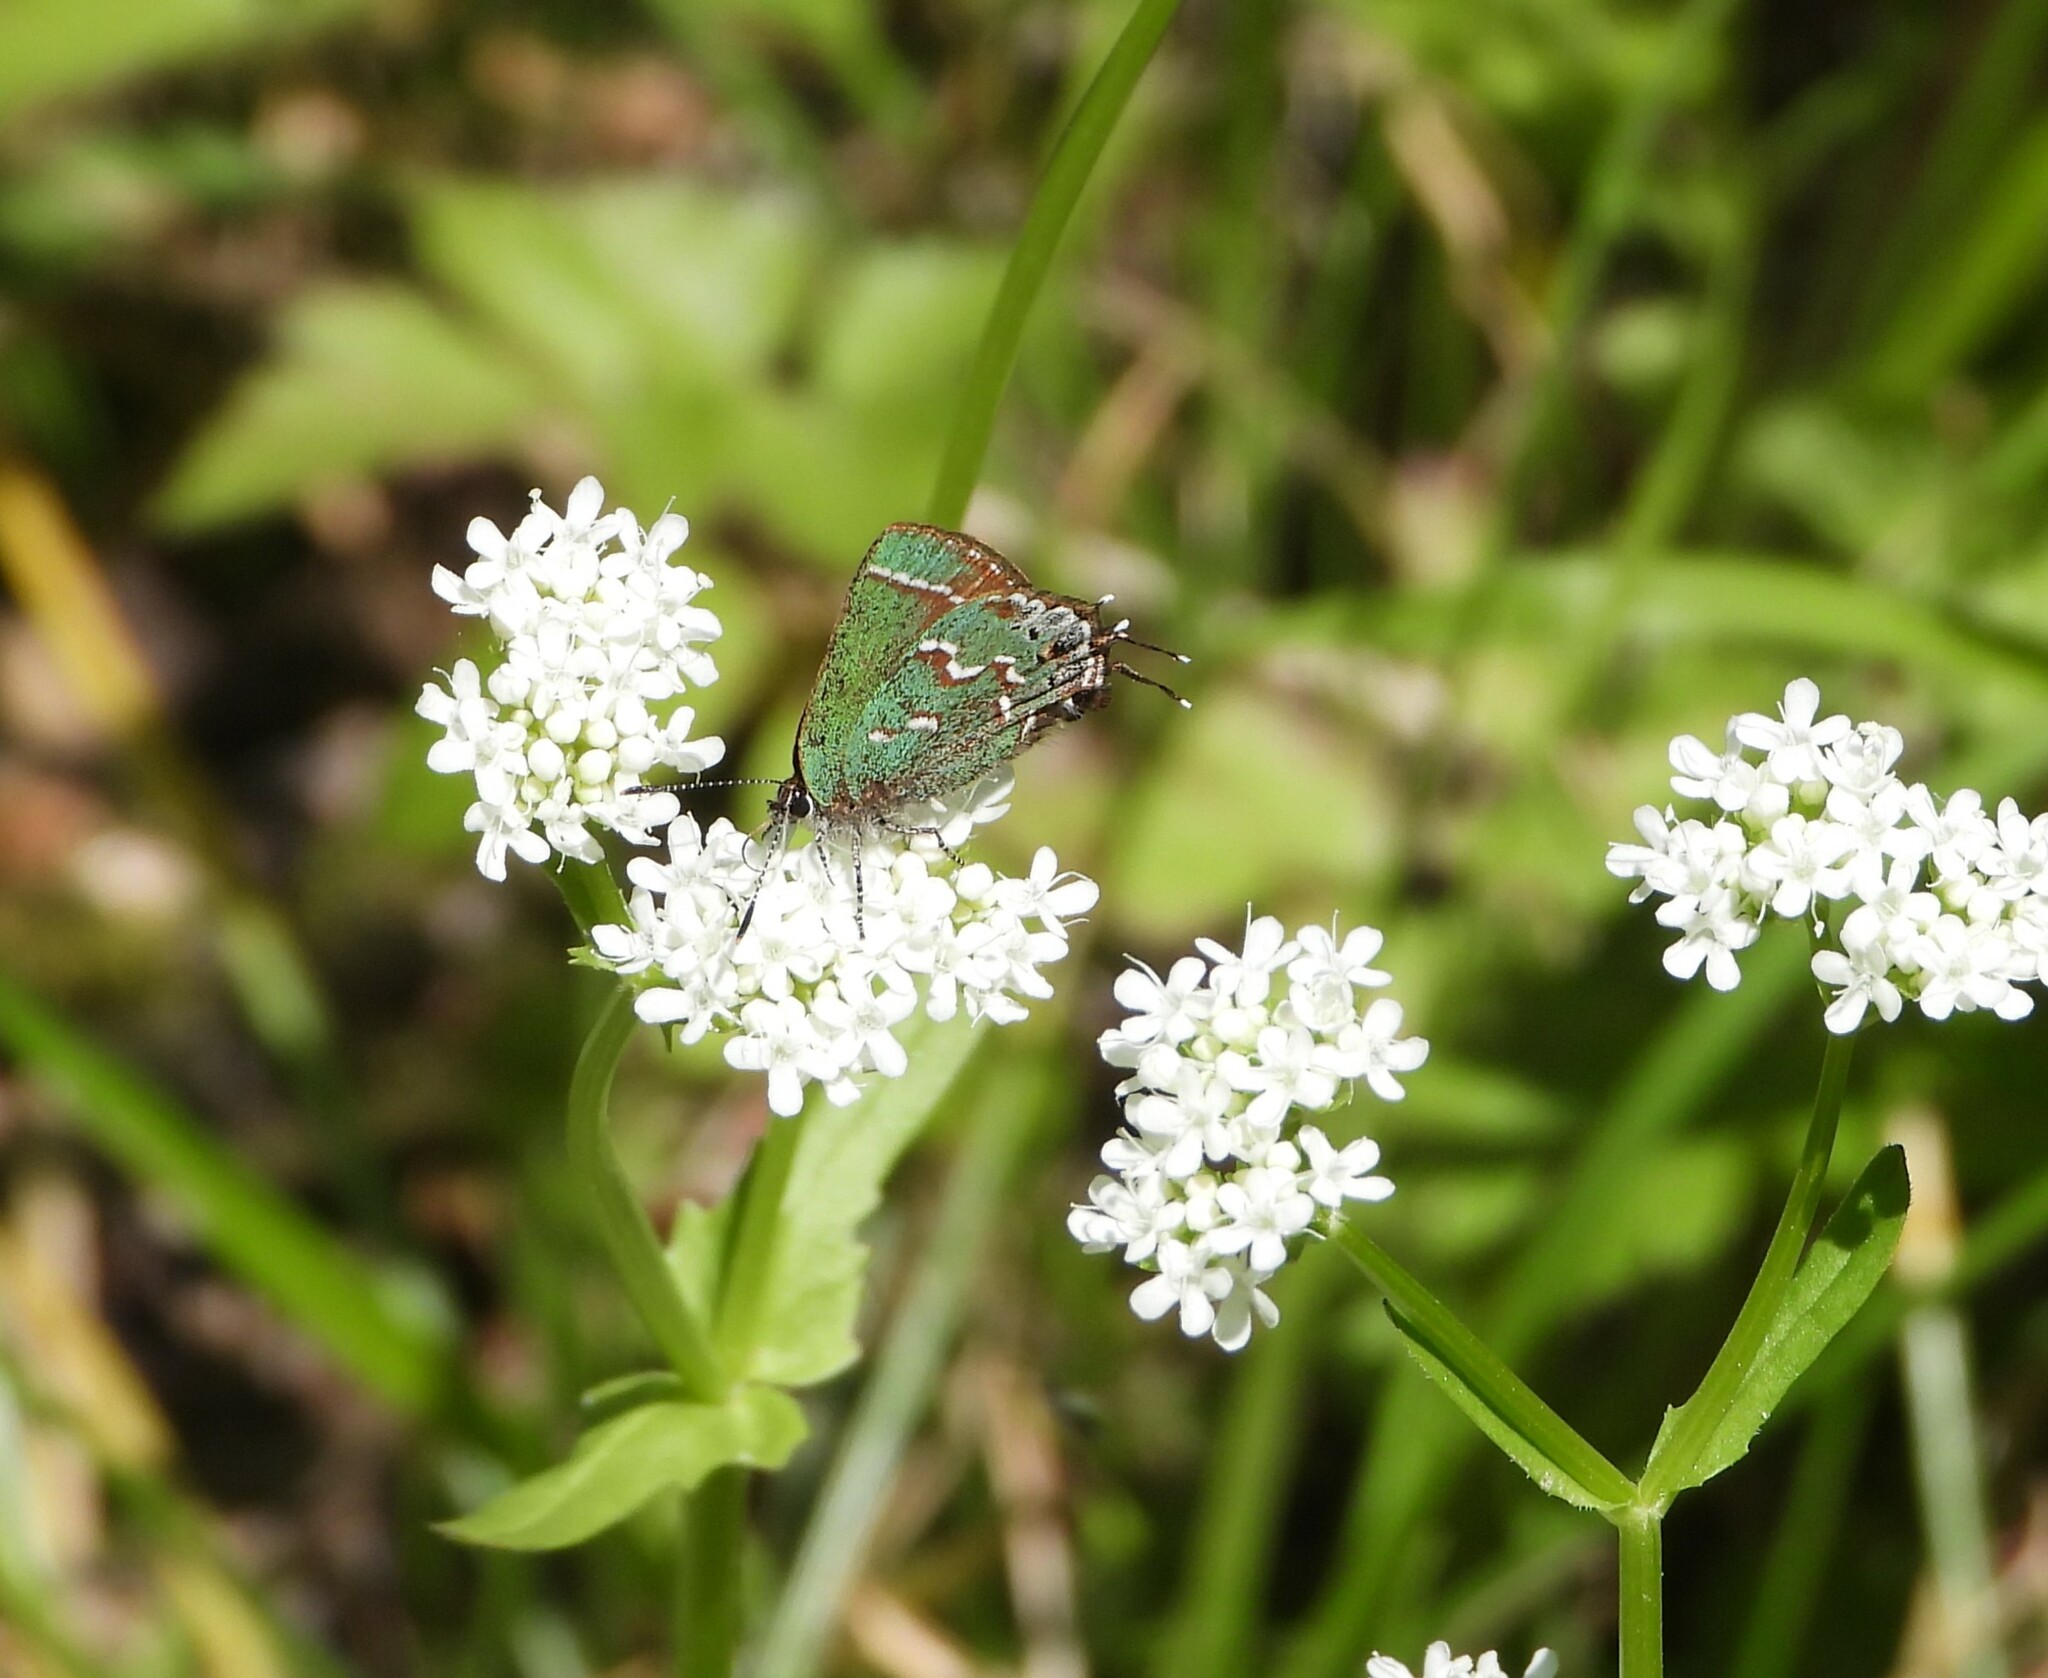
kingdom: Animalia
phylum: Arthropoda
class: Insecta
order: Lepidoptera
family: Lycaenidae
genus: Mitoura
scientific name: Mitoura gryneus
